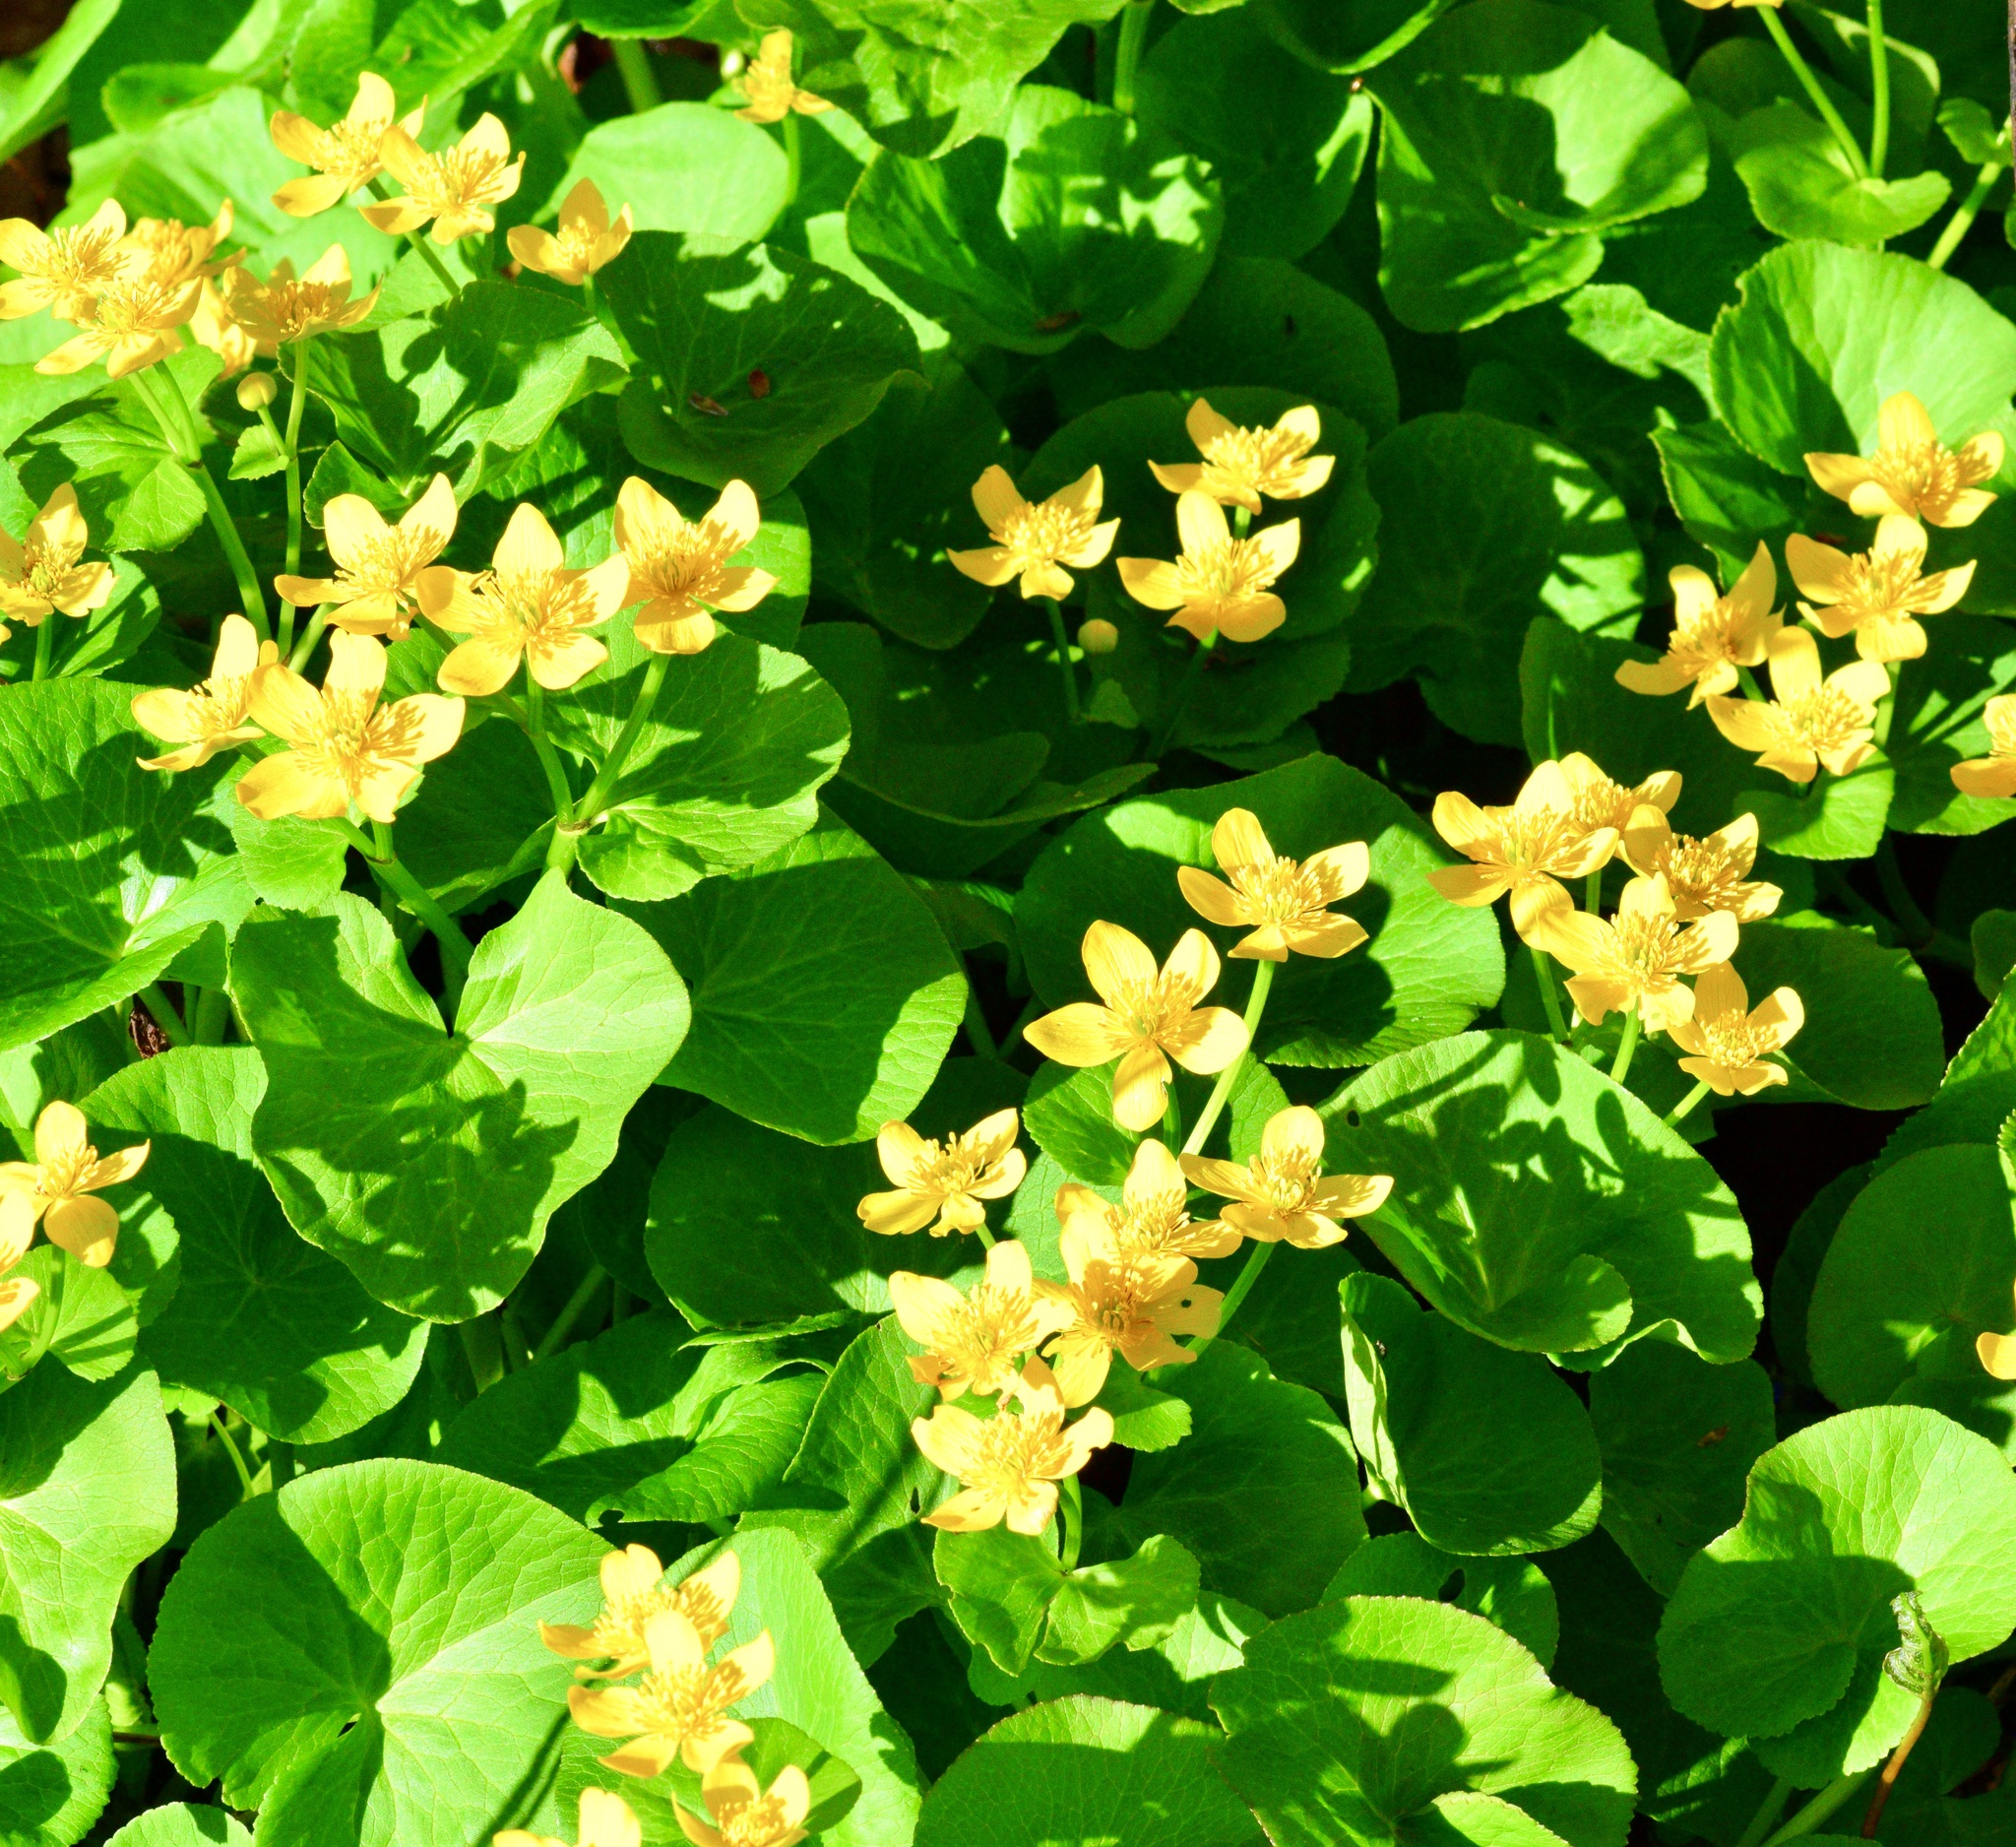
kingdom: Plantae
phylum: Tracheophyta
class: Magnoliopsida
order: Ranunculales
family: Ranunculaceae
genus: Caltha
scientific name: Caltha palustris
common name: Marsh marigold
